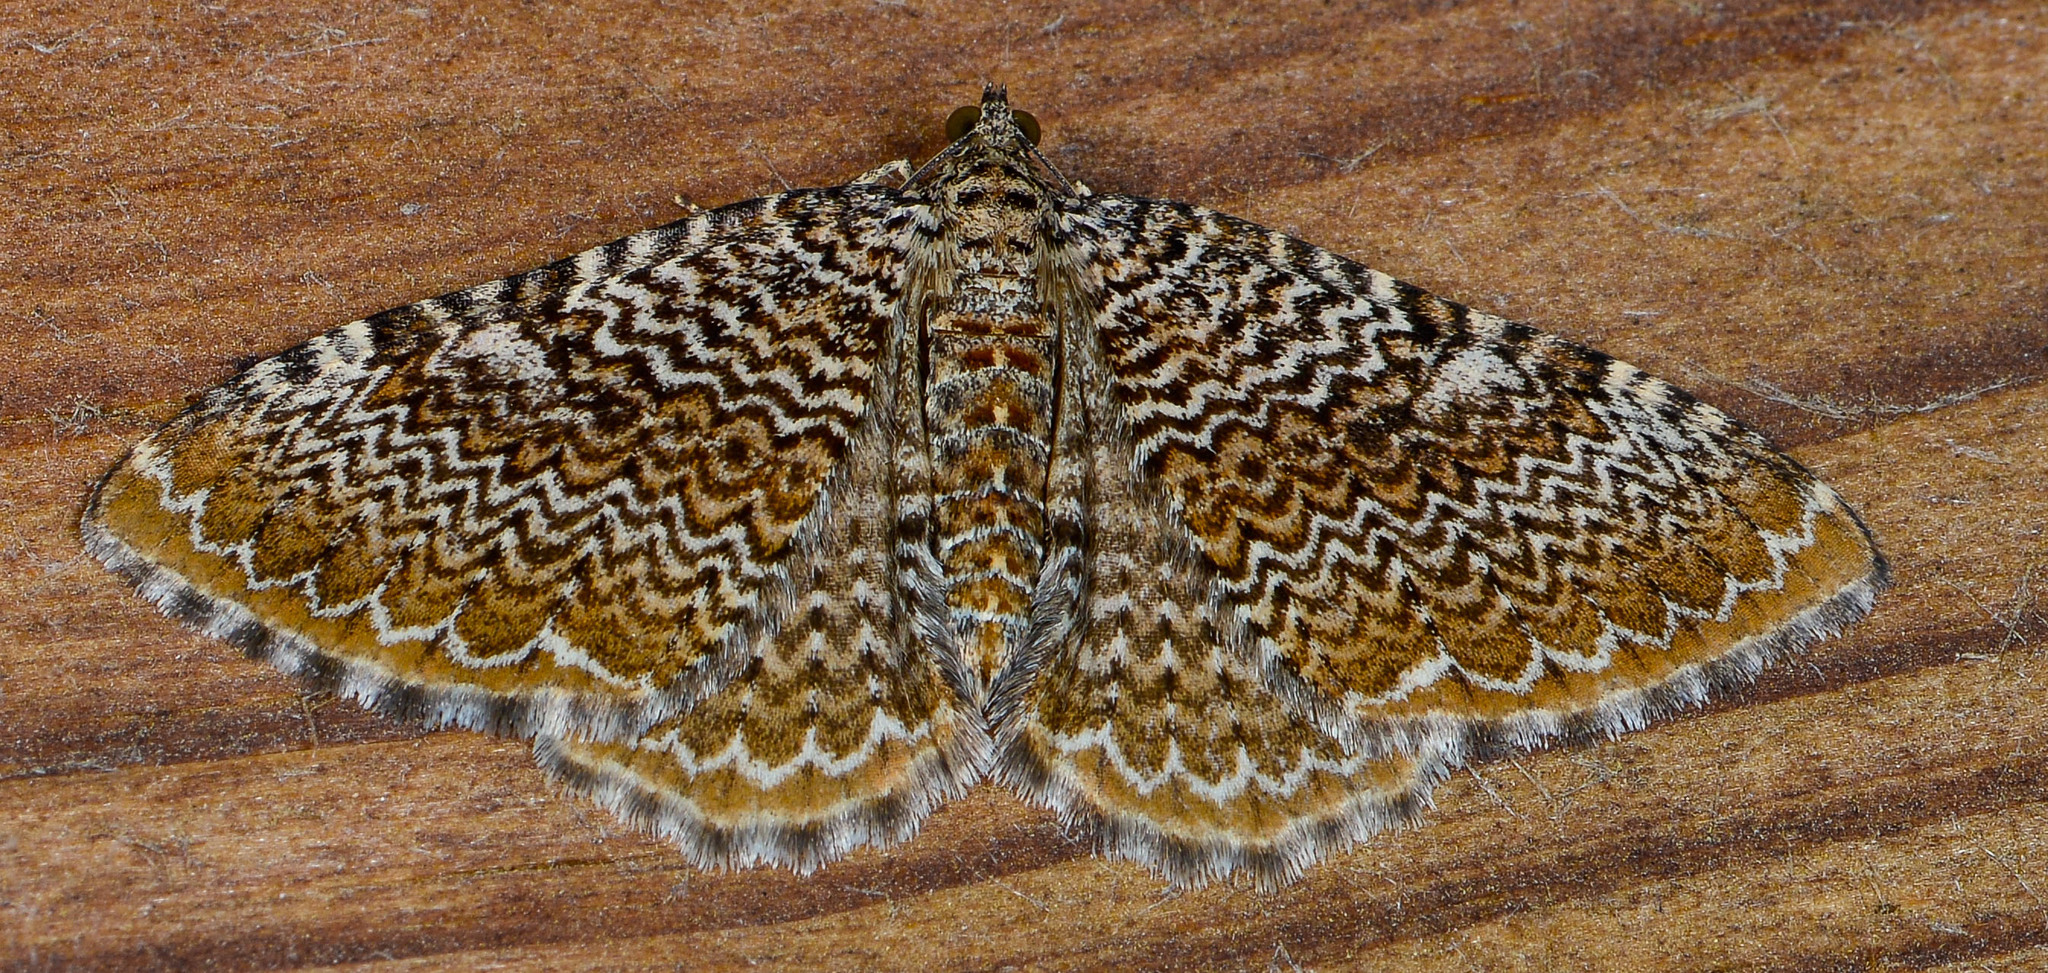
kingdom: Animalia
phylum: Arthropoda
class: Insecta
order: Lepidoptera
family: Geometridae
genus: Rheumaptera
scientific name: Rheumaptera
